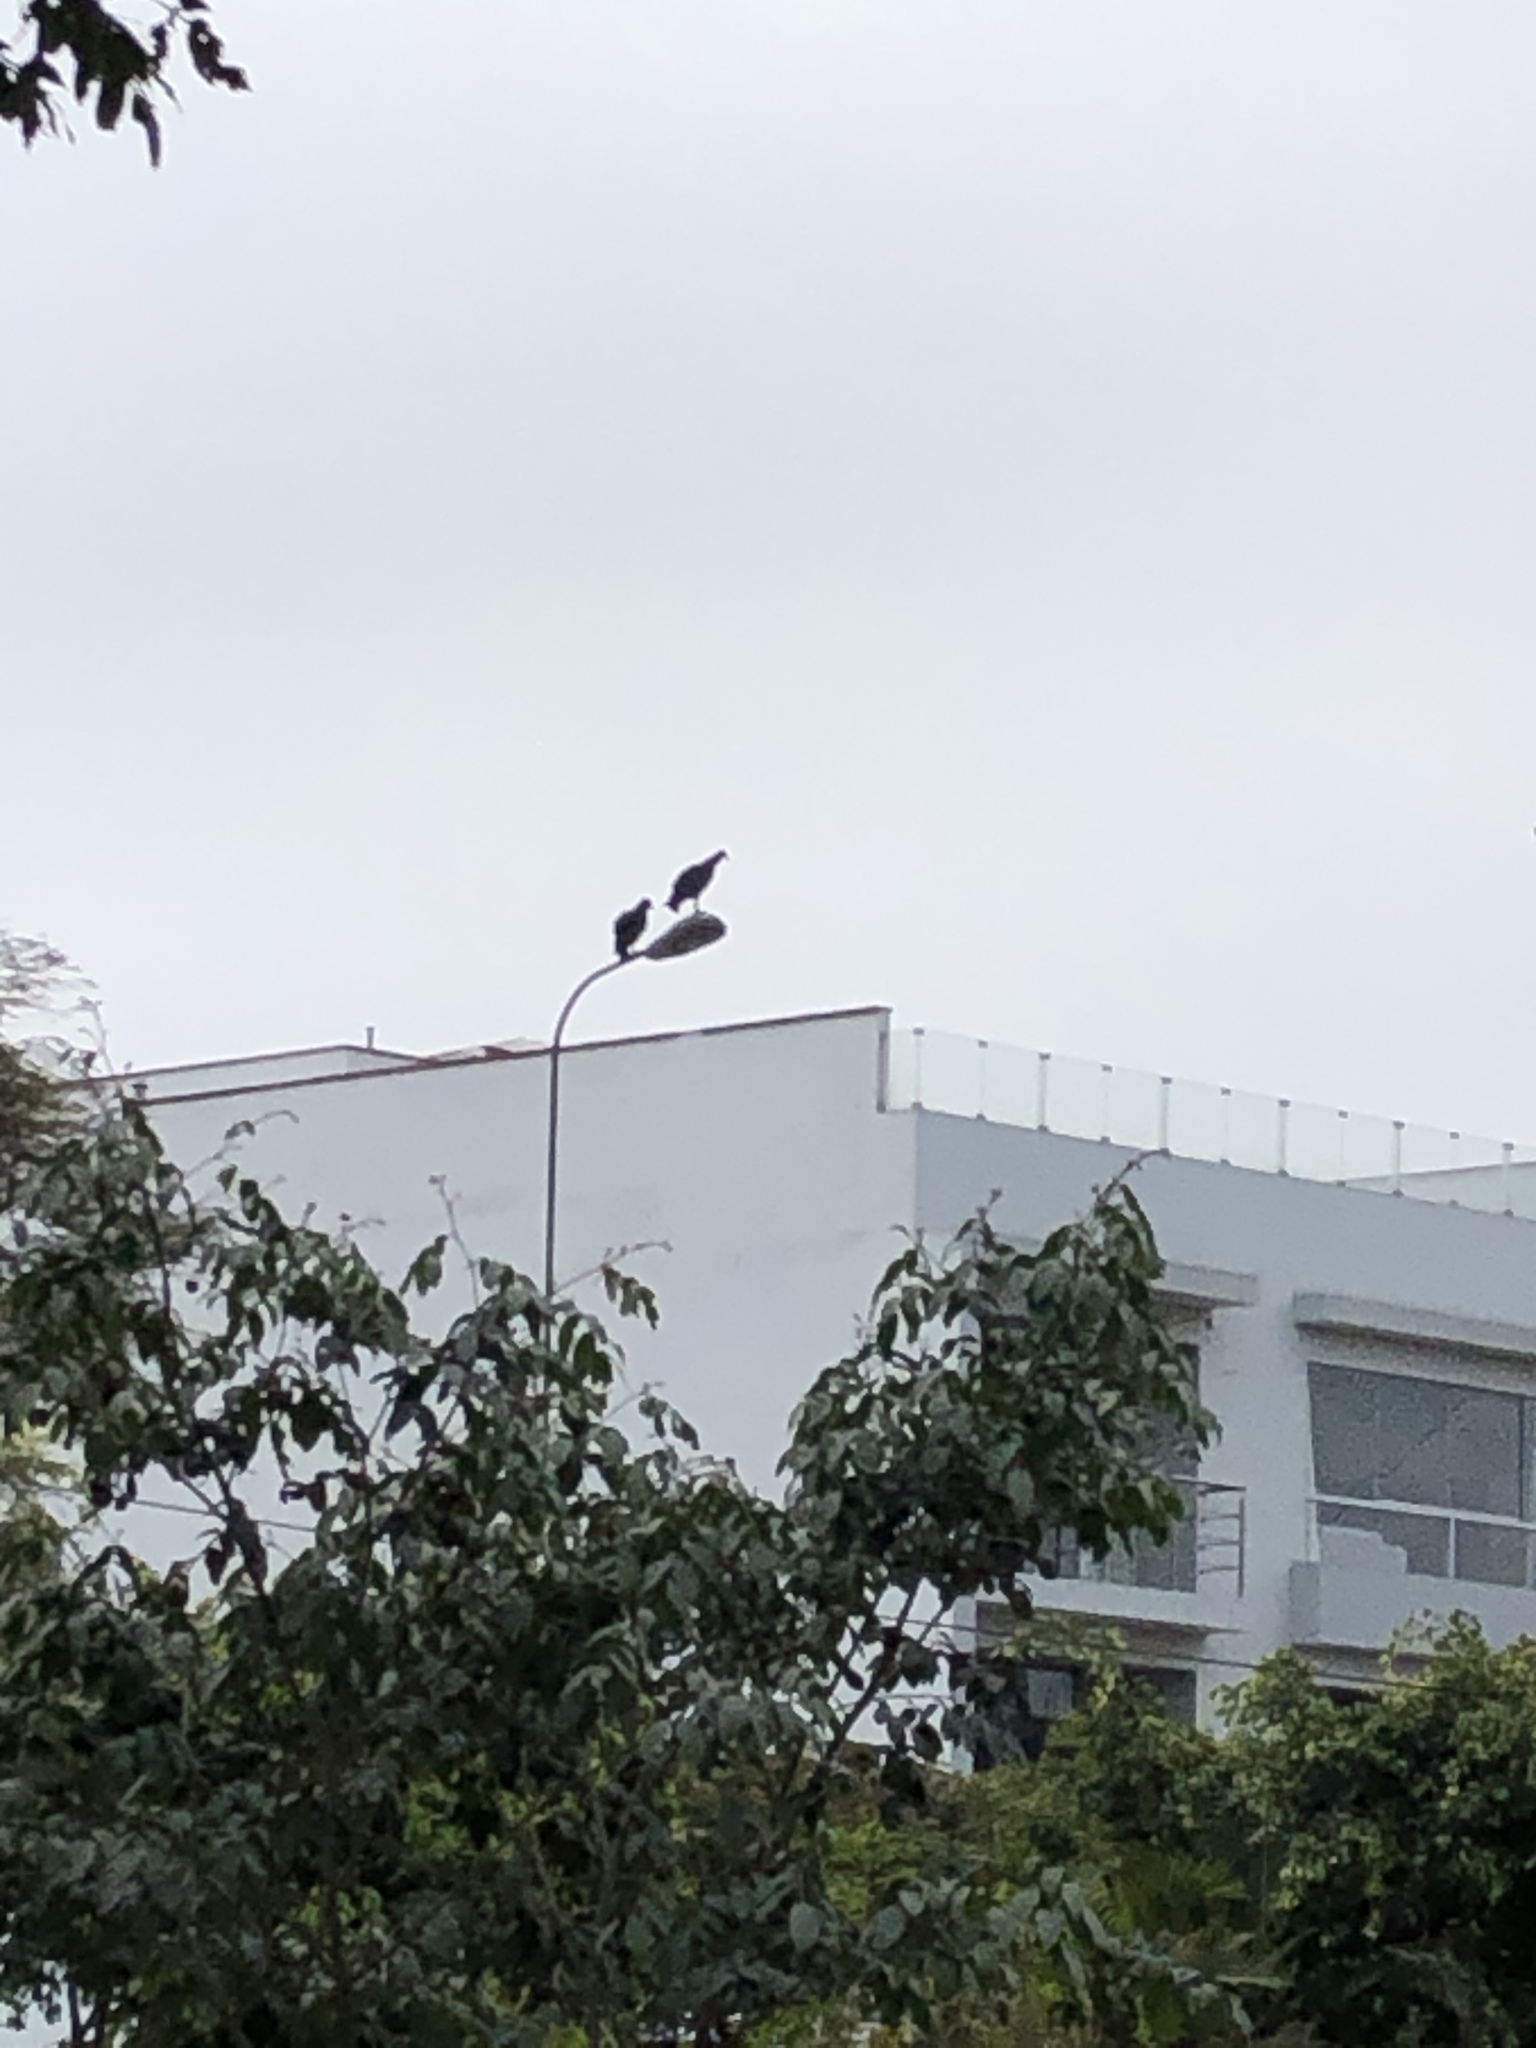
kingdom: Animalia
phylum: Chordata
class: Aves
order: Accipitriformes
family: Cathartidae
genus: Coragyps
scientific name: Coragyps atratus
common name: Black vulture
